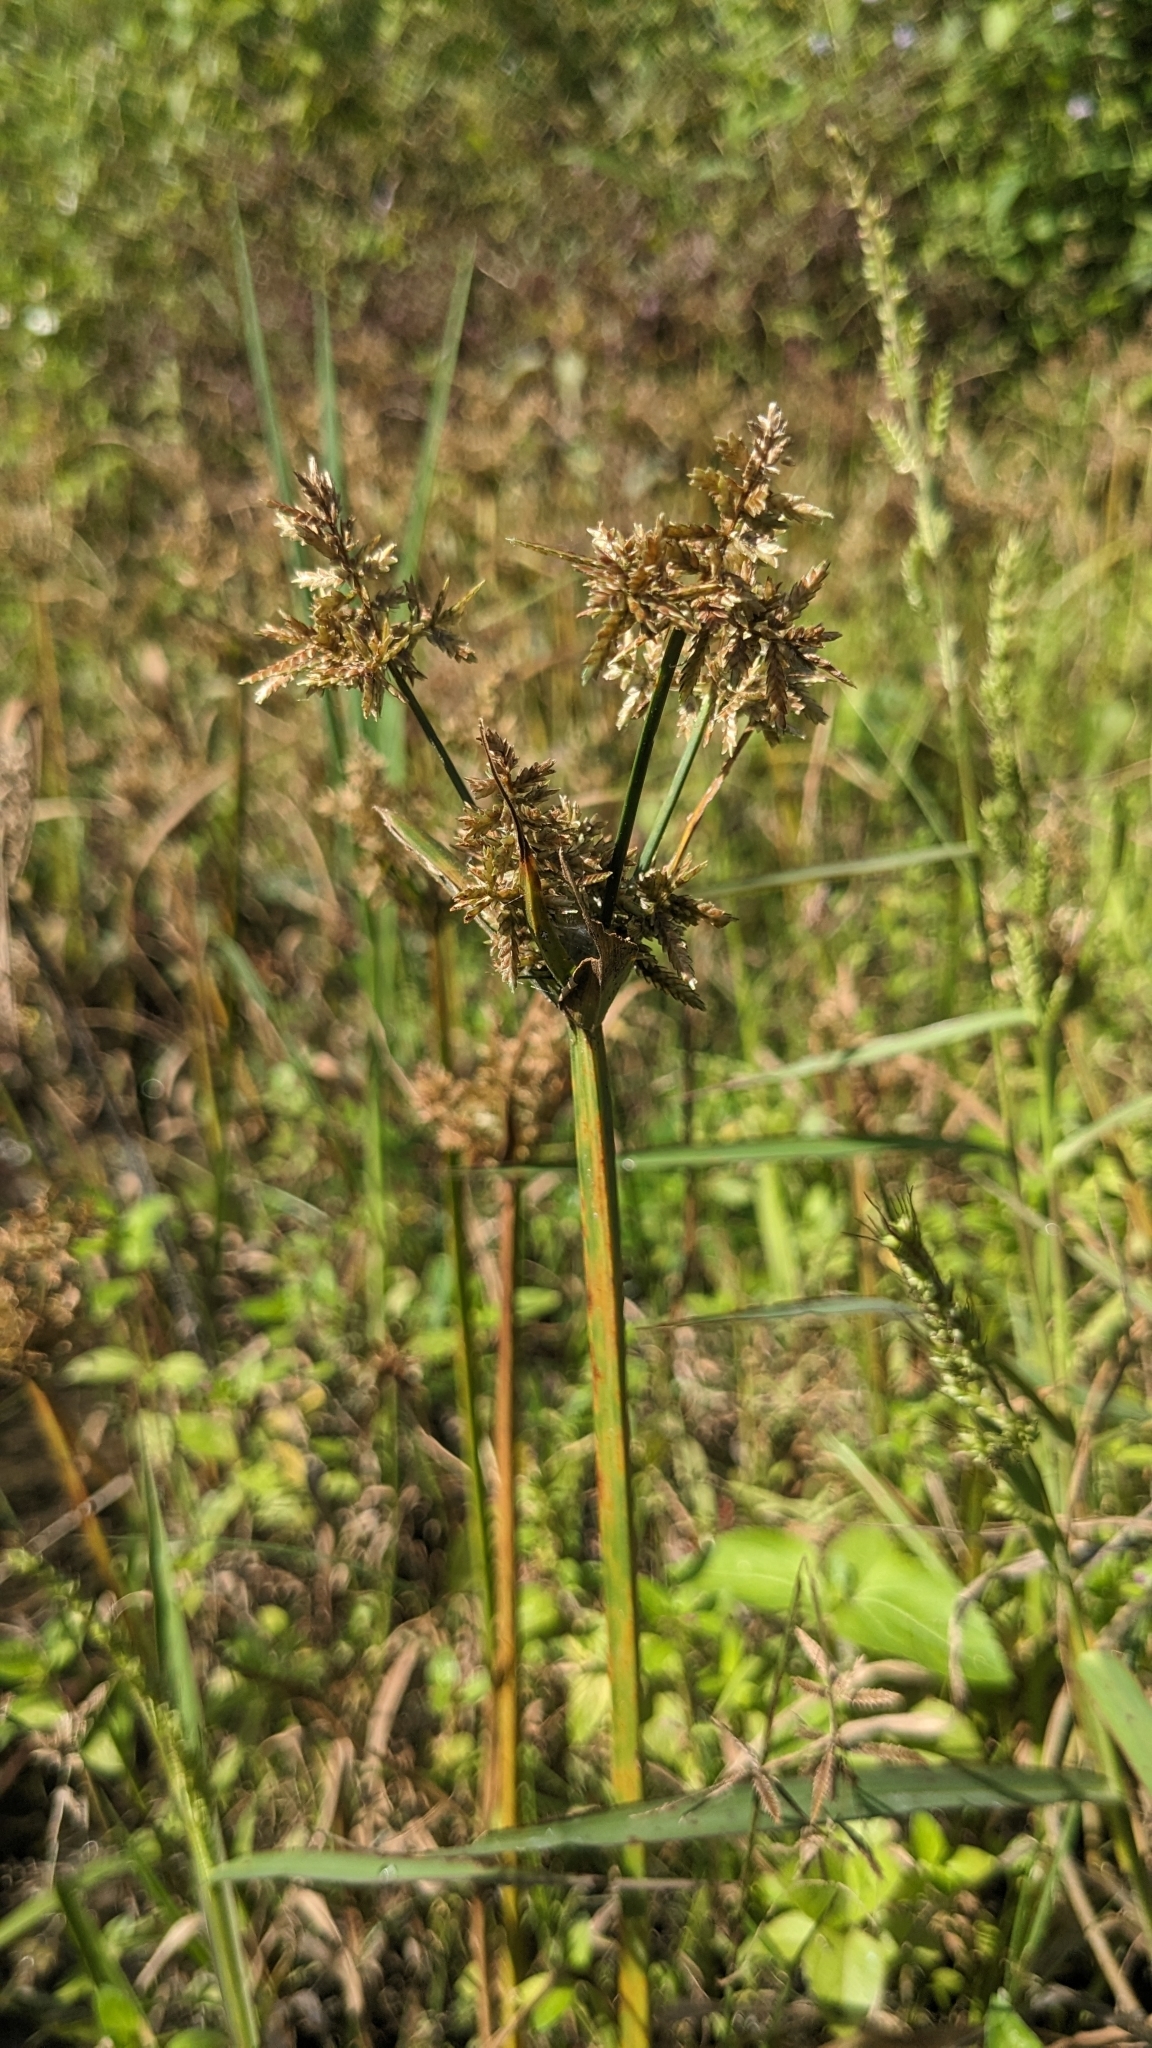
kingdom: Plantae
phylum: Tracheophyta
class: Liliopsida
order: Poales
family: Cyperaceae
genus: Cyperus
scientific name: Cyperus pilosus
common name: Fuzzy flatsedge
